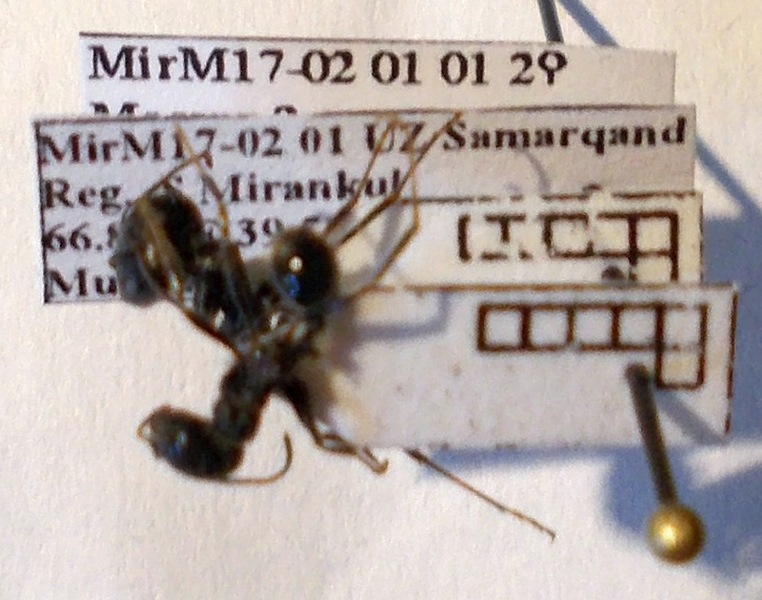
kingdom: Animalia
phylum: Arthropoda
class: Insecta
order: Hymenoptera
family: Formicidae
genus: Messor
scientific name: Messor structor
